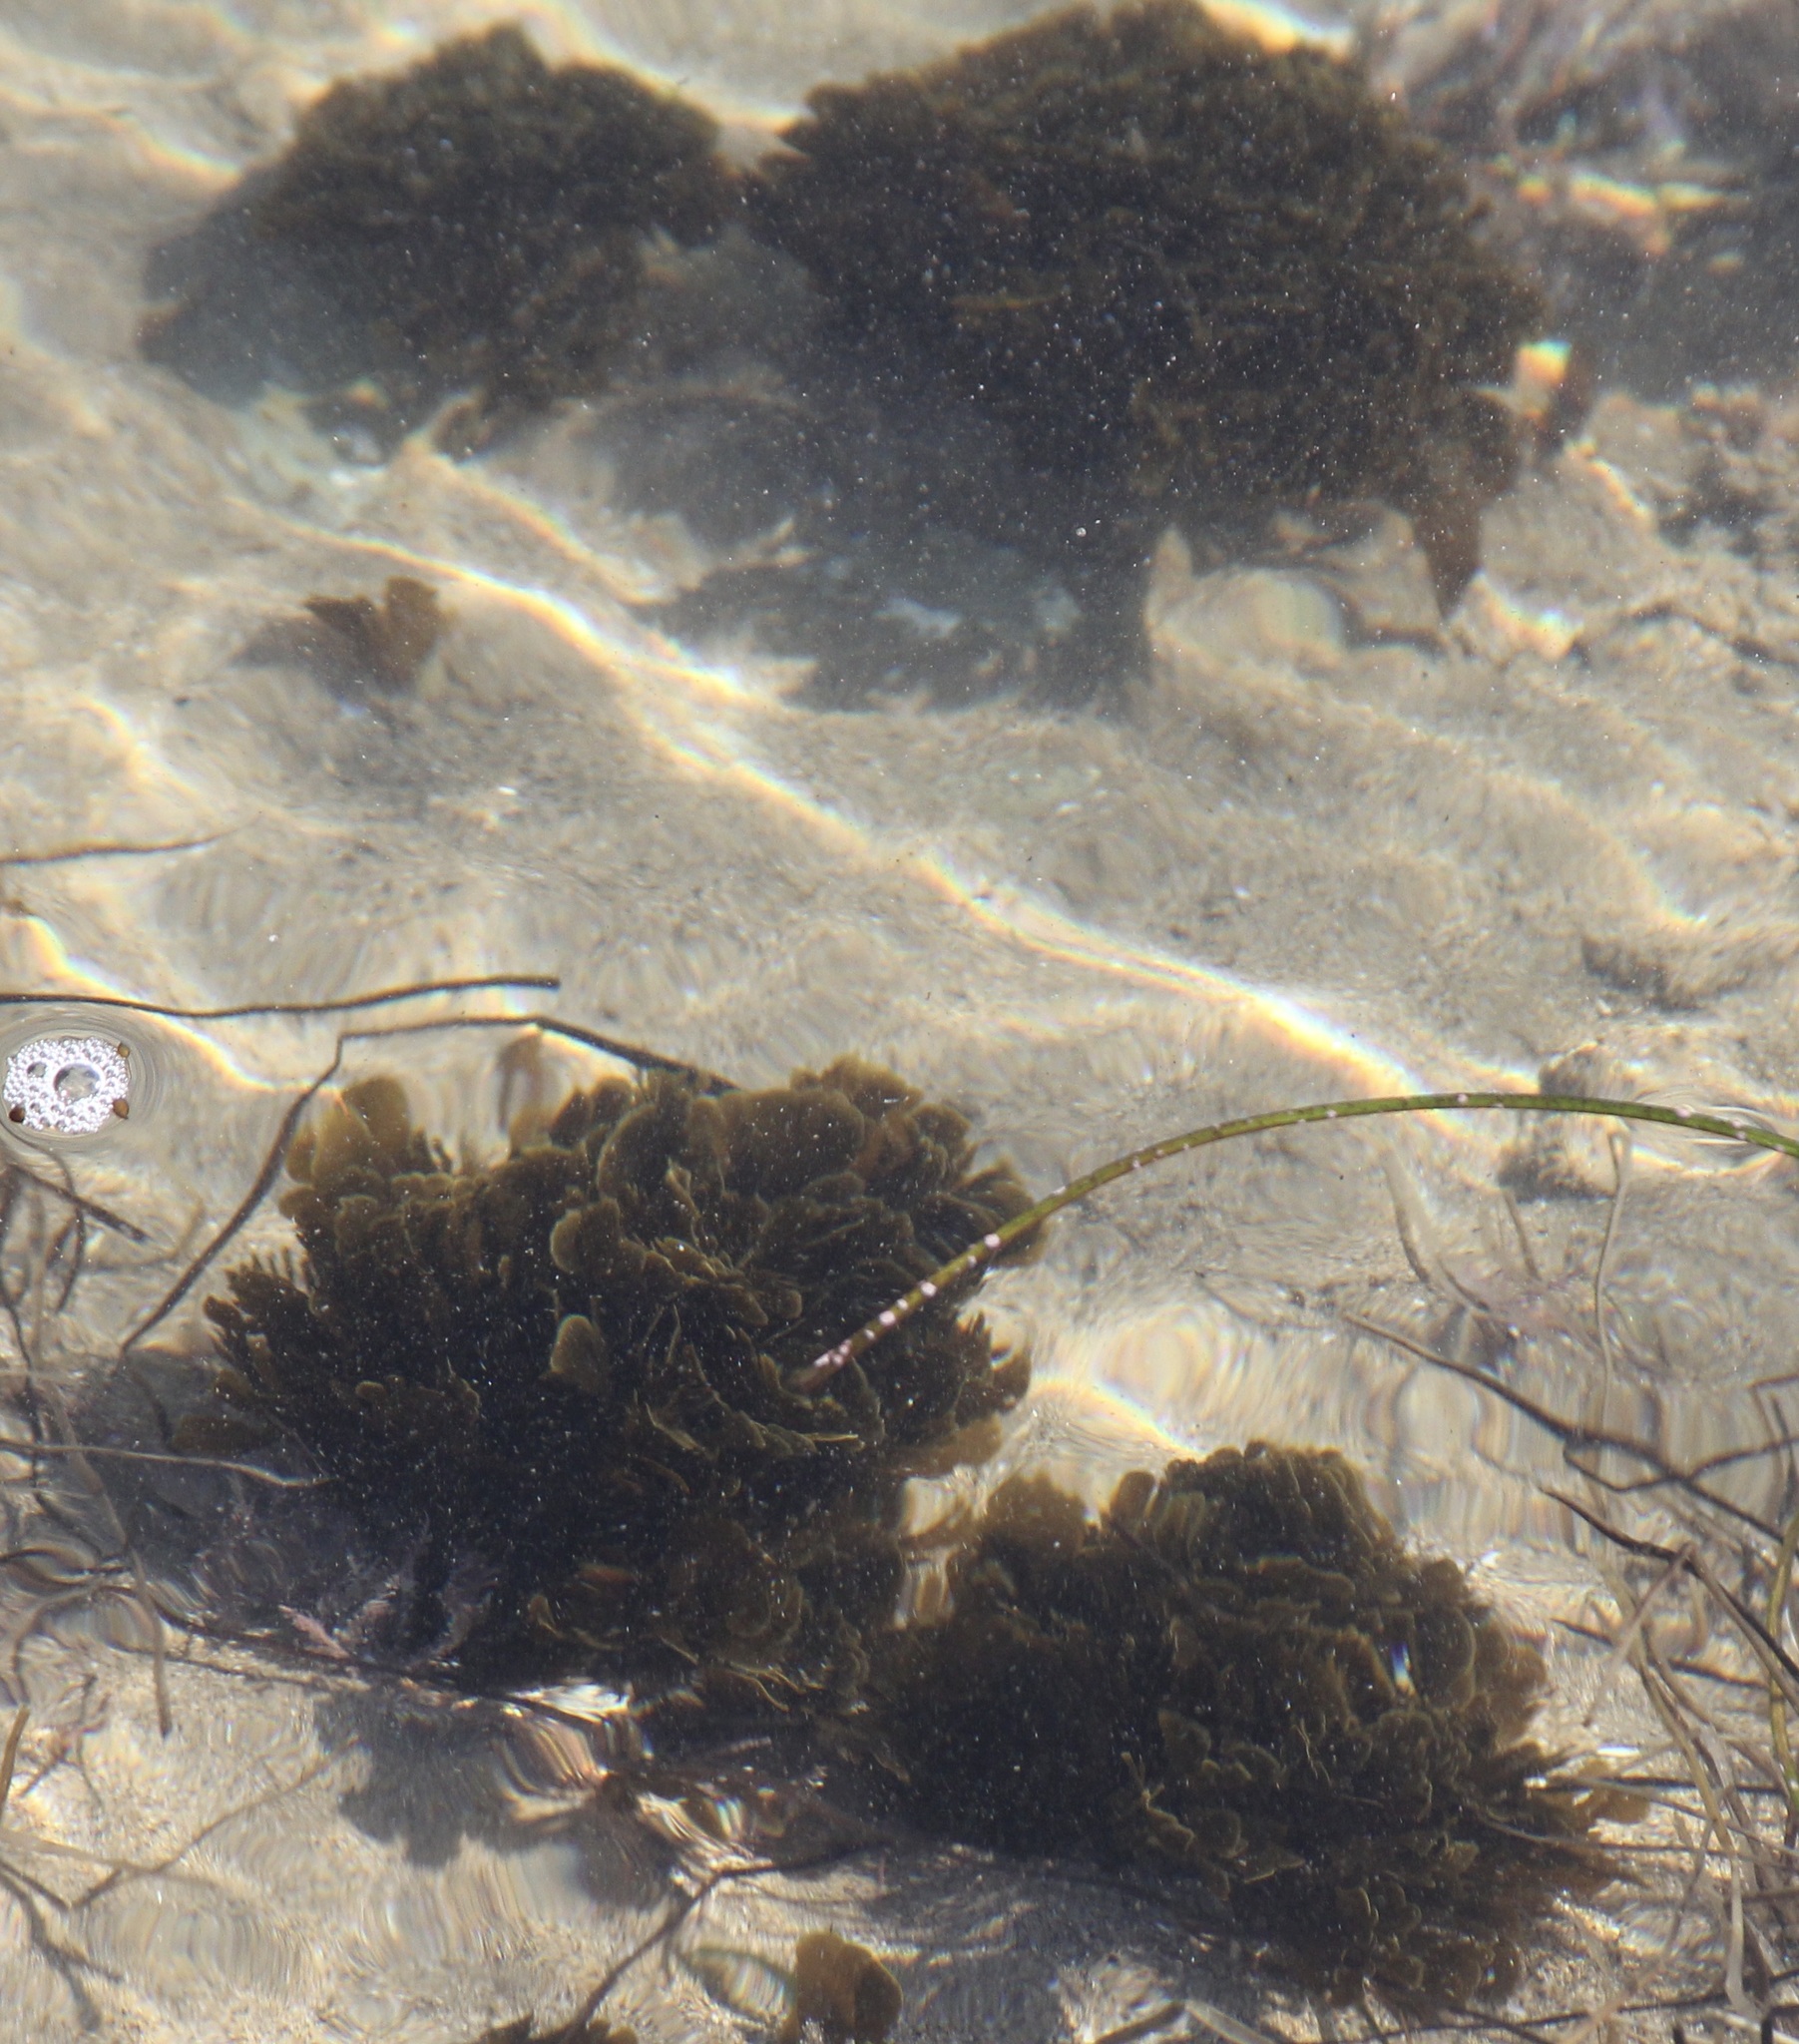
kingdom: Chromista
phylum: Ochrophyta
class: Phaeophyceae
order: Dictyotales
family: Dictyotaceae
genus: Zonaria
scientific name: Zonaria farlowii
